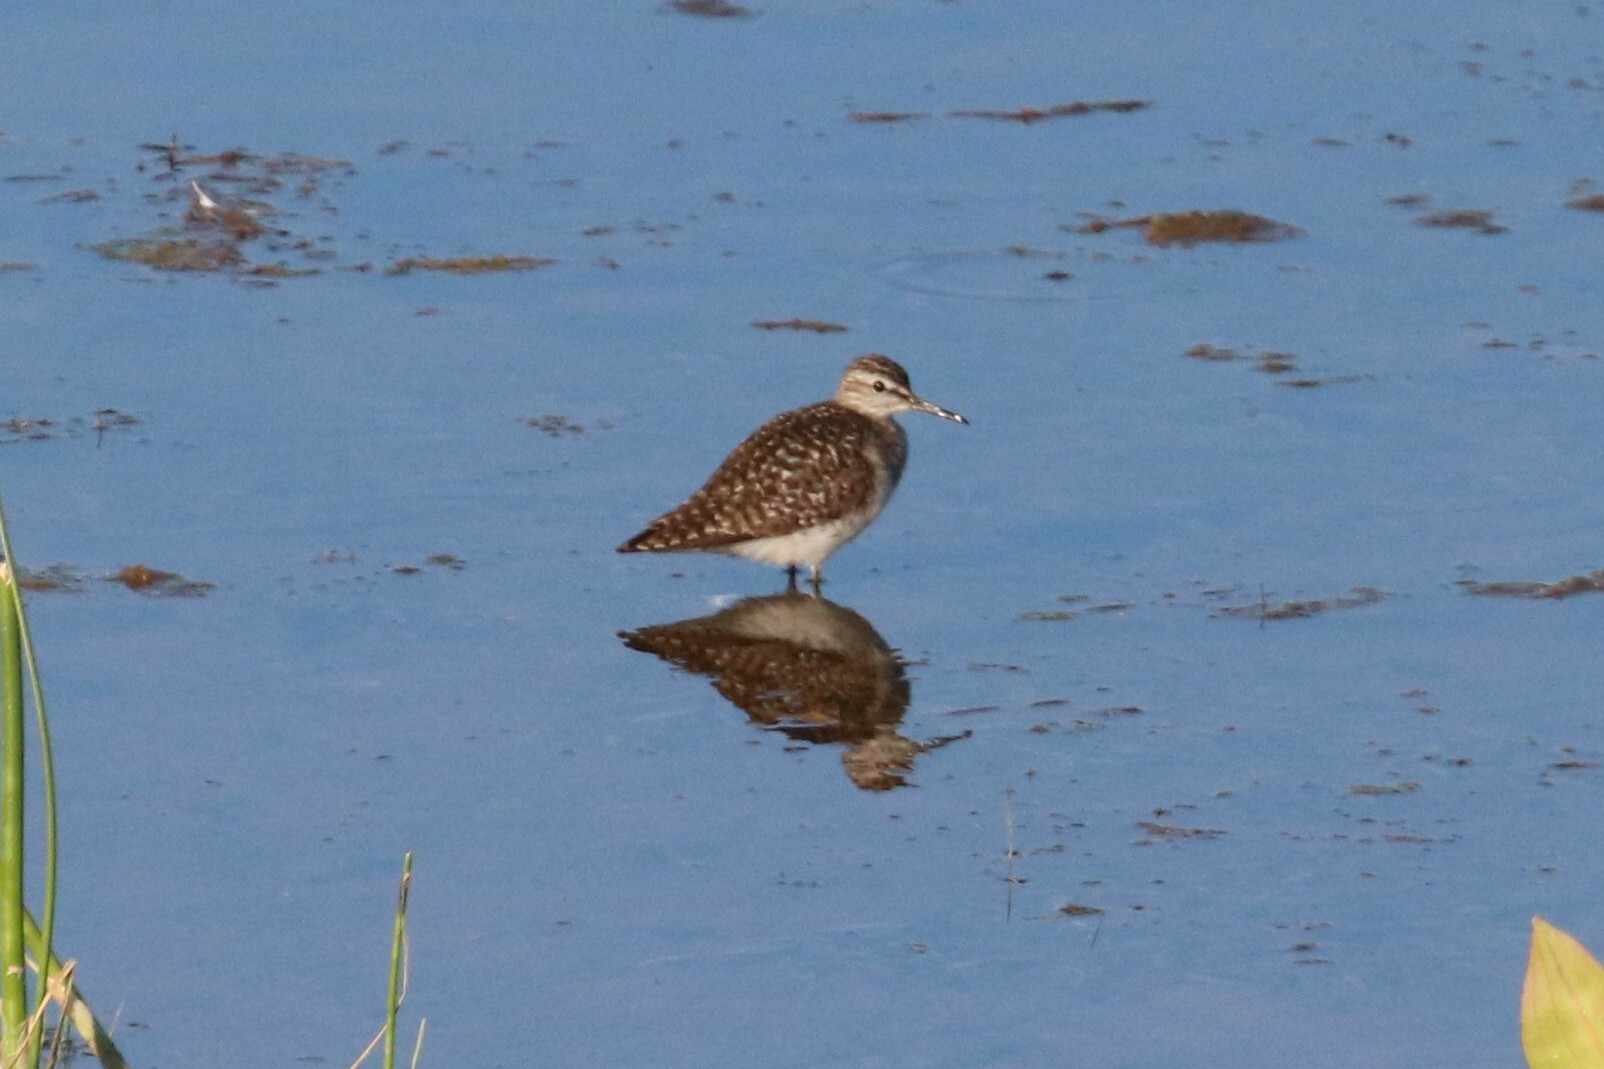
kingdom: Animalia
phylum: Chordata
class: Aves
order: Charadriiformes
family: Scolopacidae
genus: Tringa
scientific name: Tringa glareola
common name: Wood sandpiper
